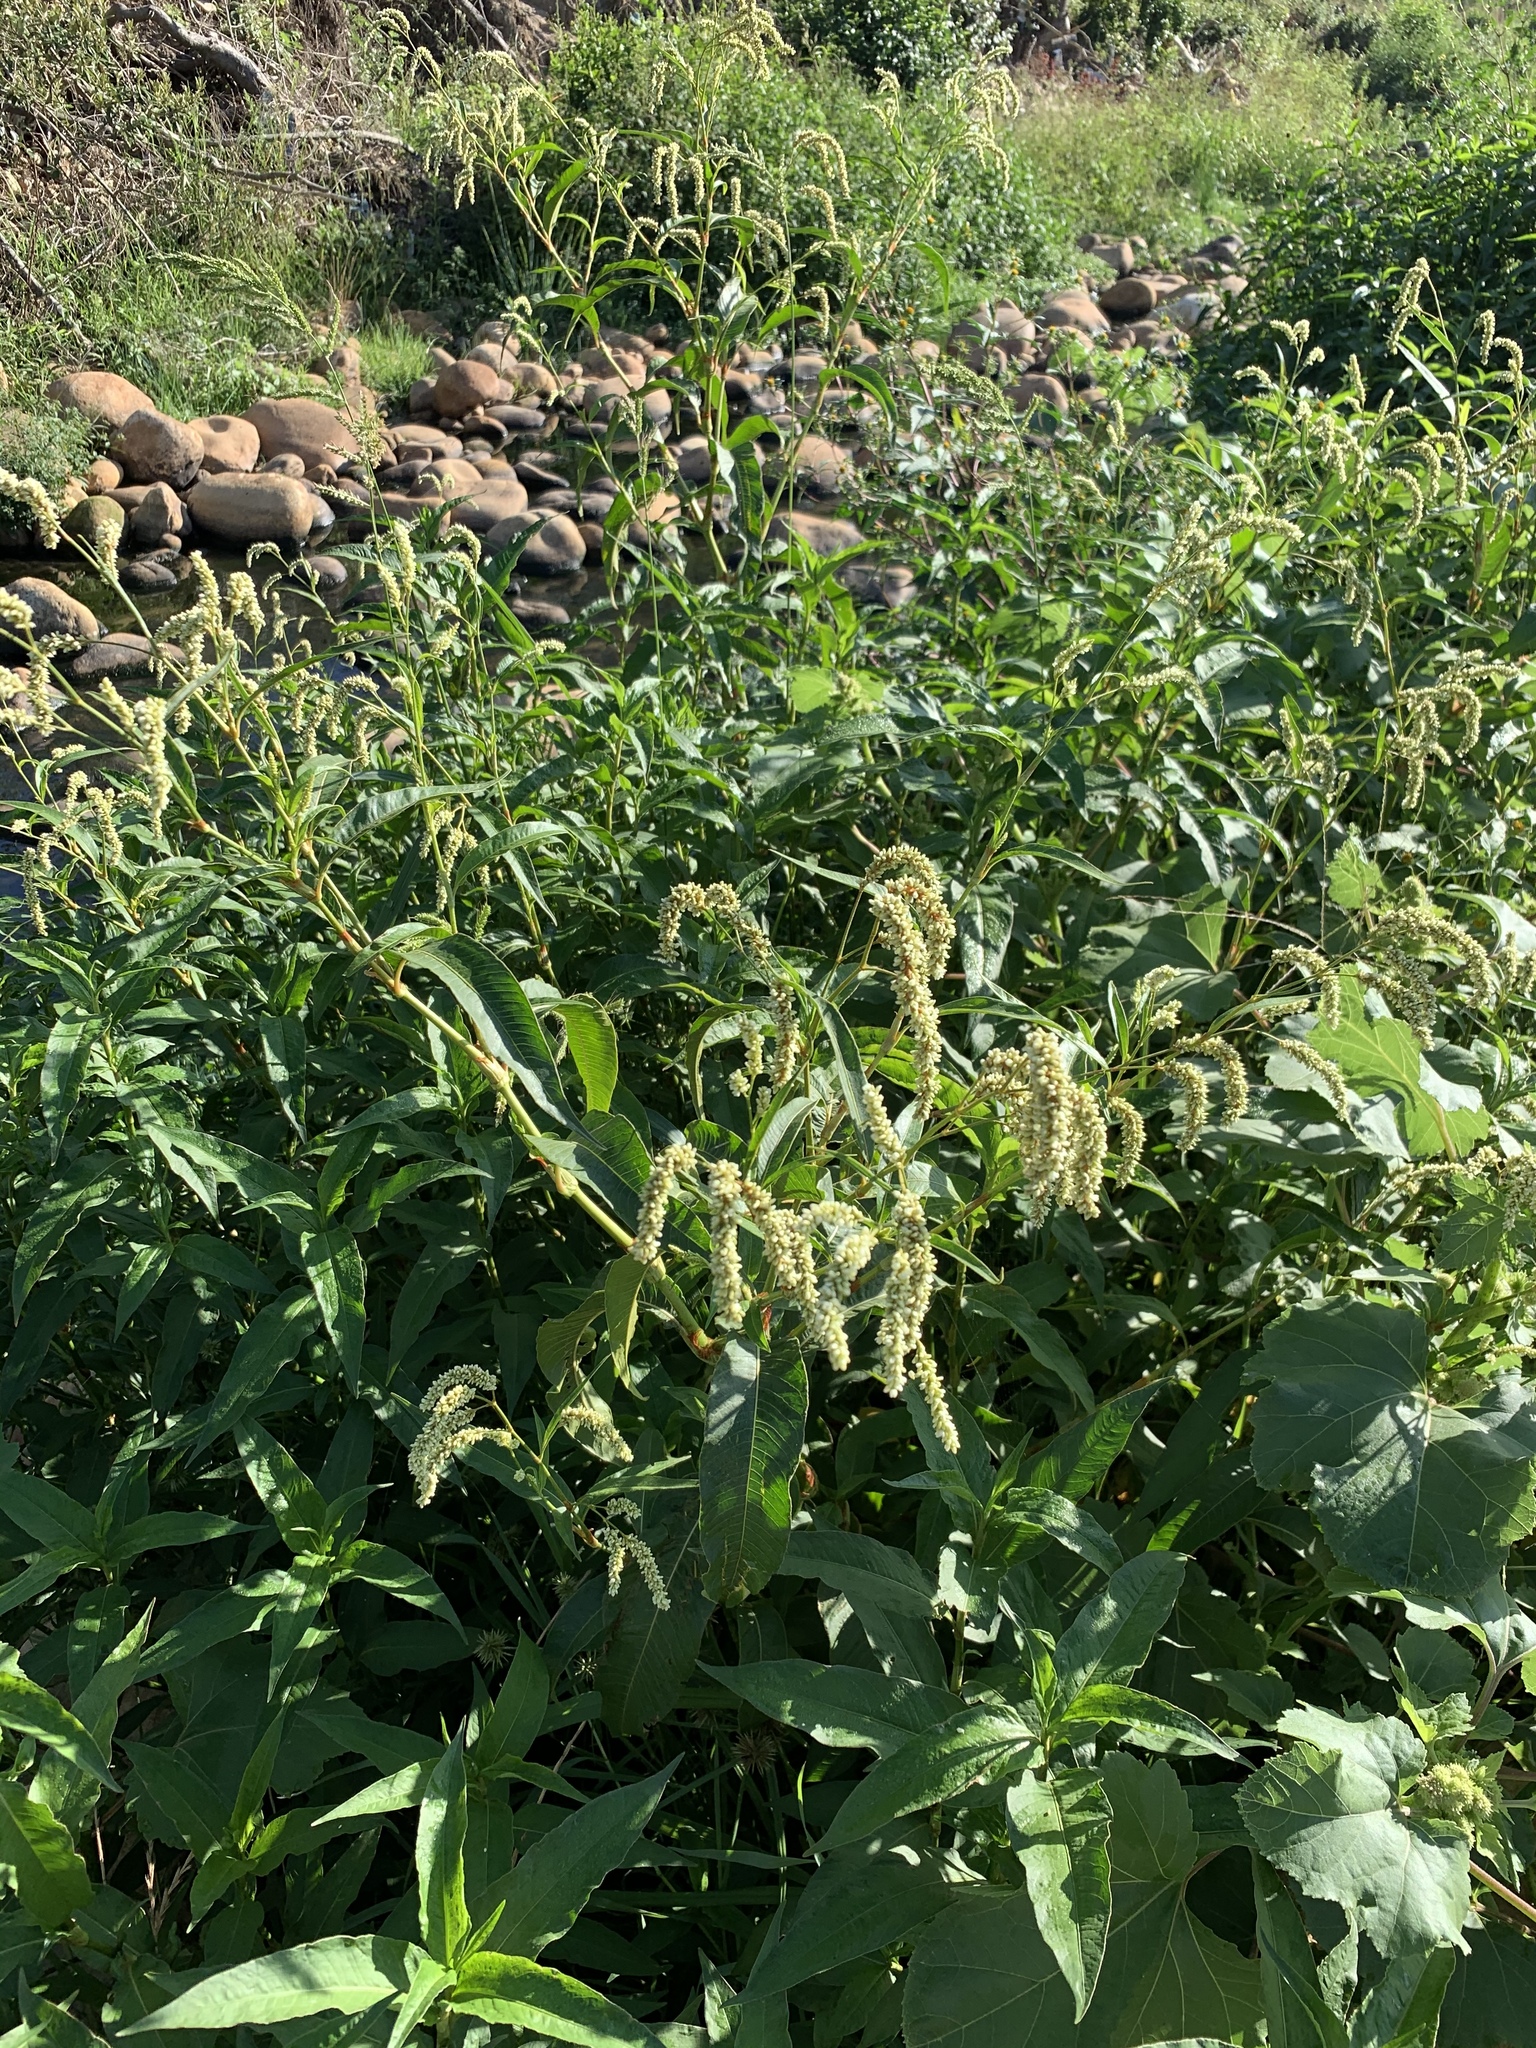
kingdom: Plantae
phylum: Tracheophyta
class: Magnoliopsida
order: Caryophyllales
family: Polygonaceae
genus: Persicaria
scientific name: Persicaria lapathifolia
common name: Curlytop knotweed
